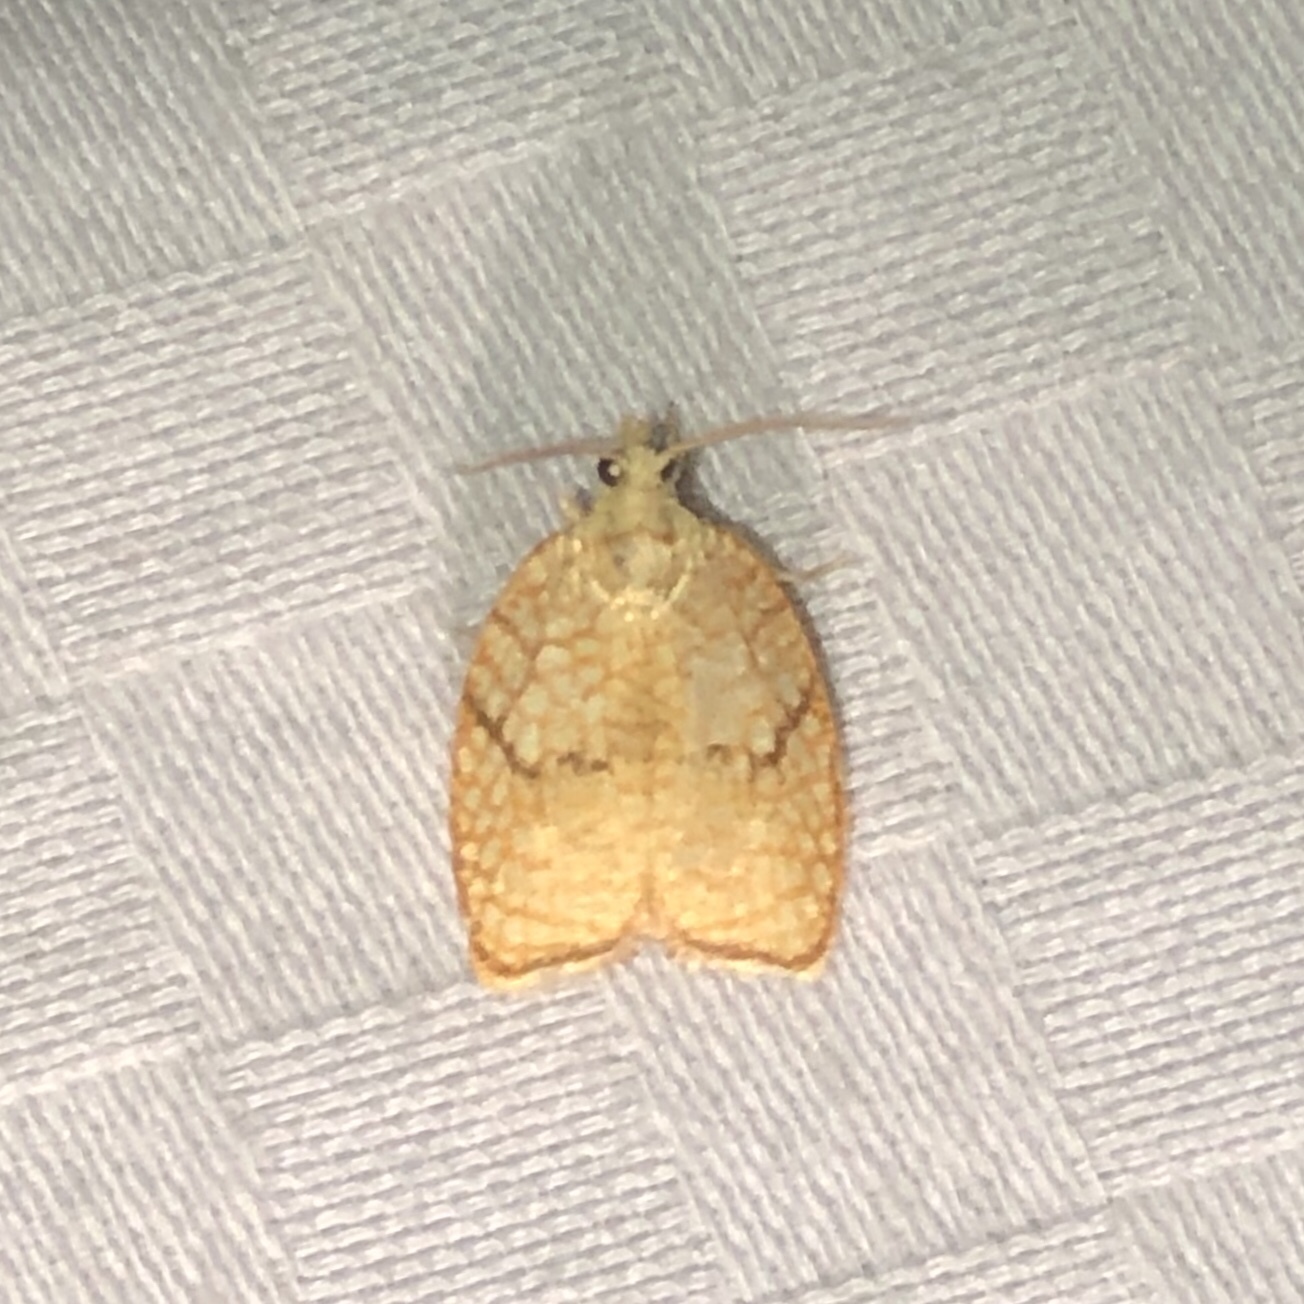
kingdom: Animalia
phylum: Arthropoda
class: Insecta
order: Lepidoptera
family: Tortricidae
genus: Acleris
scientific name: Acleris forsskaleana
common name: Maple button
